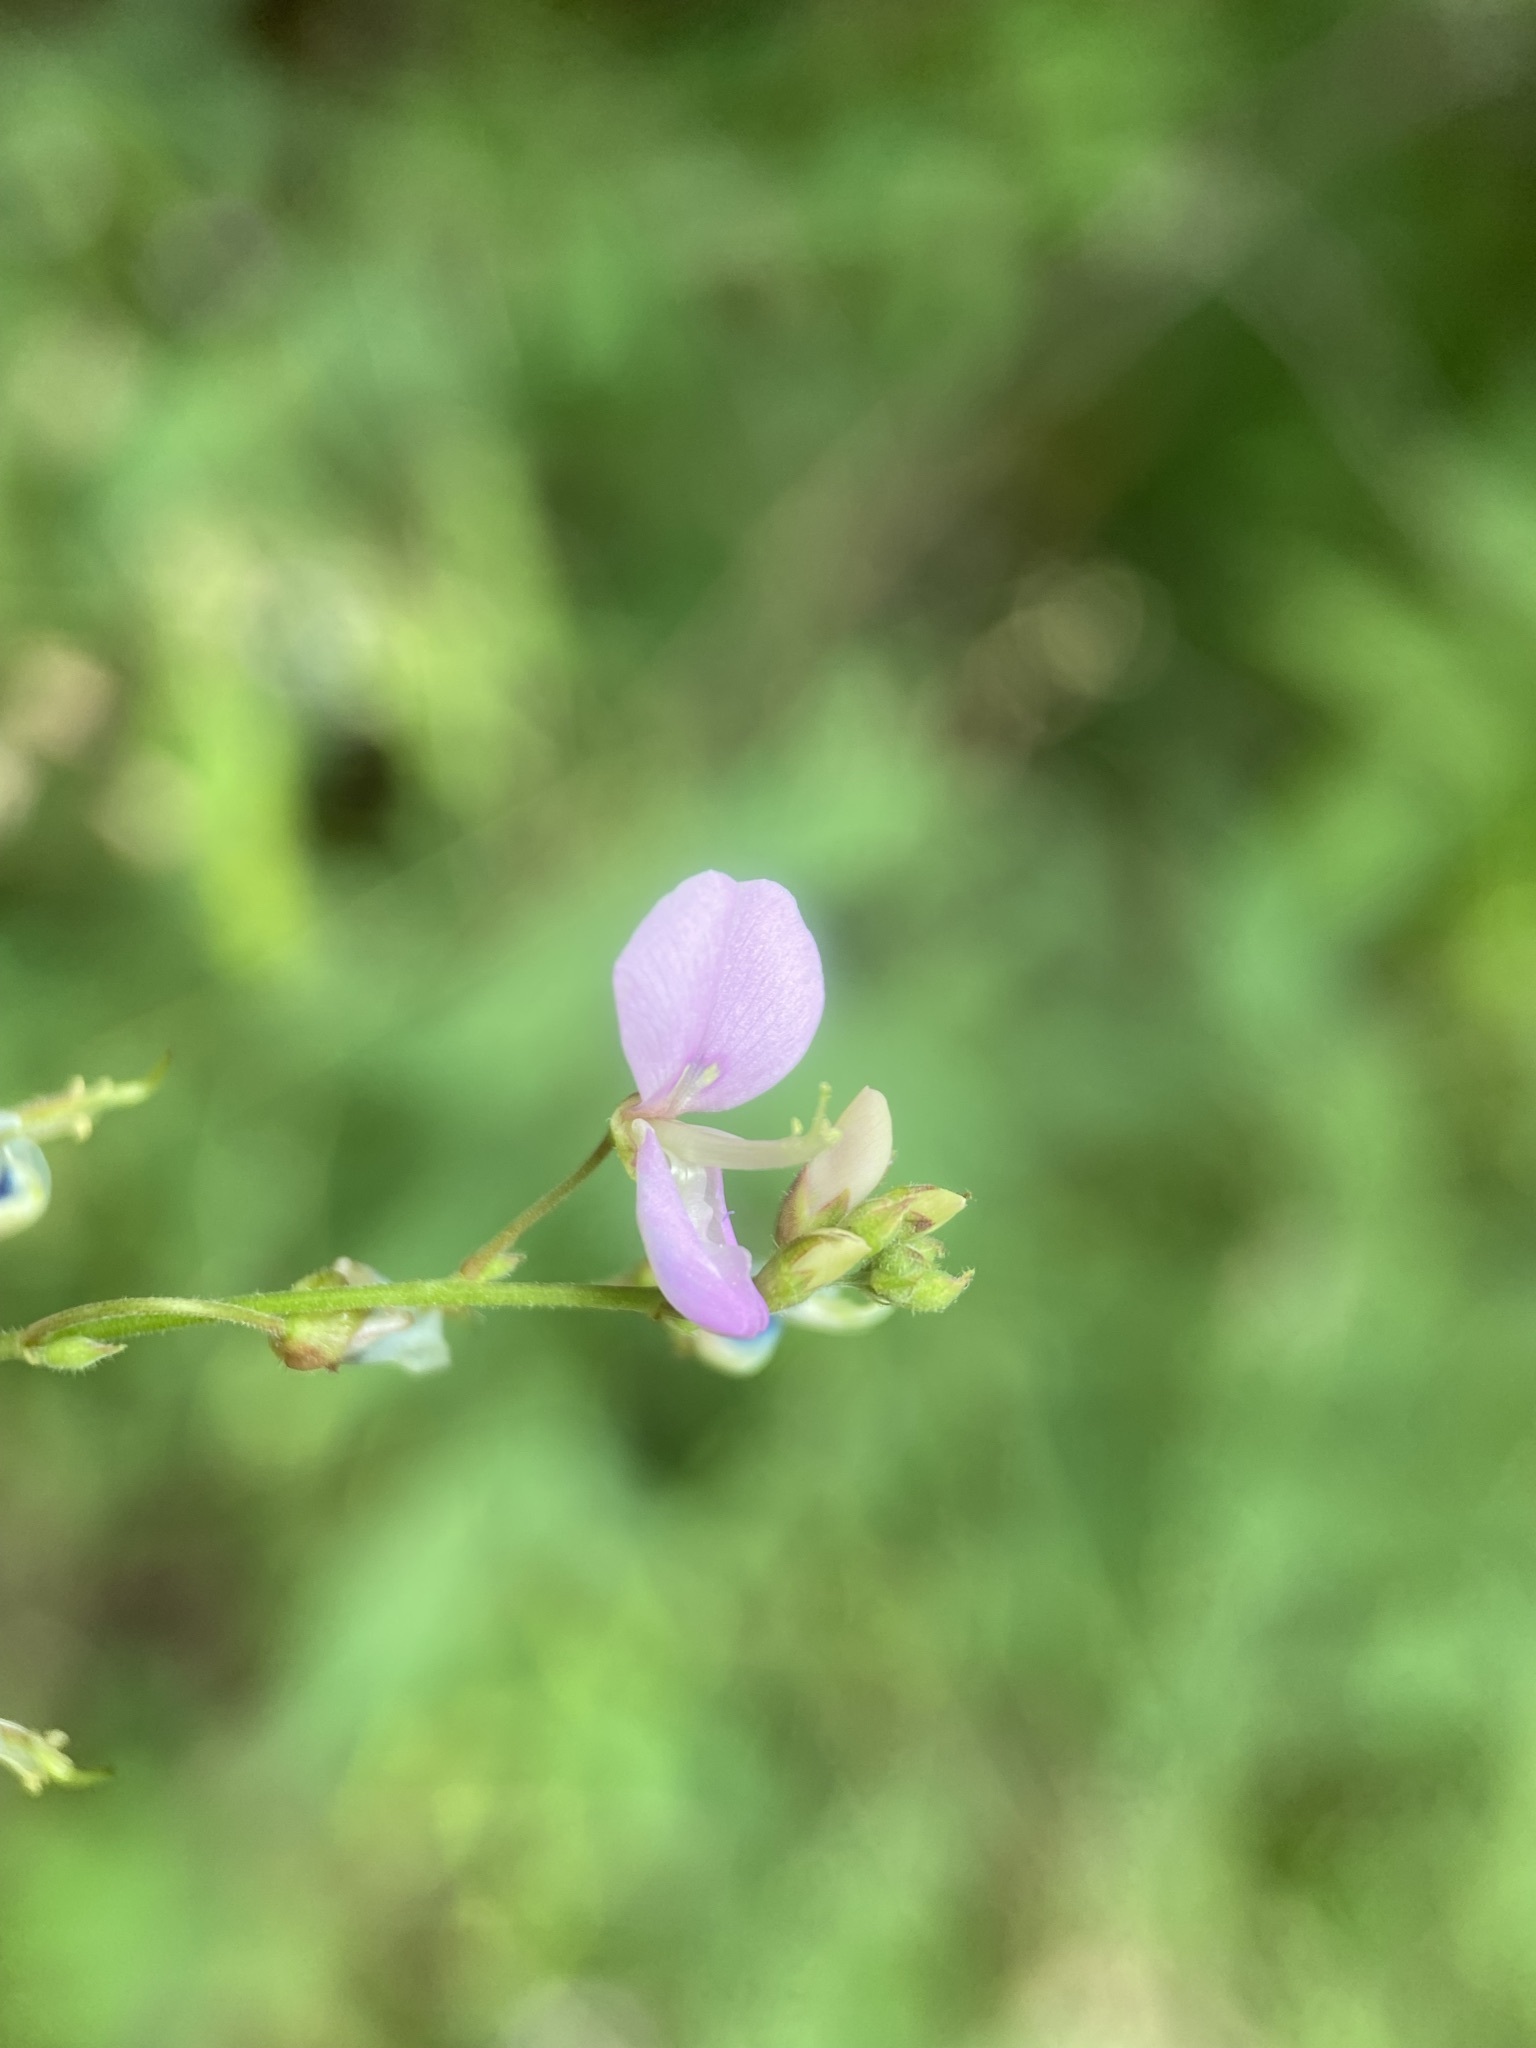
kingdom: Plantae
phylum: Tracheophyta
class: Magnoliopsida
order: Fabales
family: Fabaceae
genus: Desmodium
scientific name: Desmodium paniculatum
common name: Panicled tick-clover
